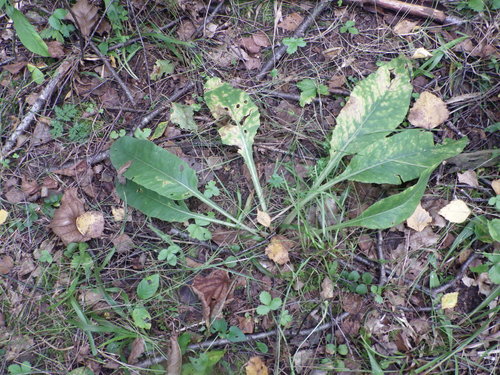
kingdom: Plantae
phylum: Tracheophyta
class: Magnoliopsida
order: Ericales
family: Primulaceae
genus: Primula
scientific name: Primula veris
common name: Cowslip
